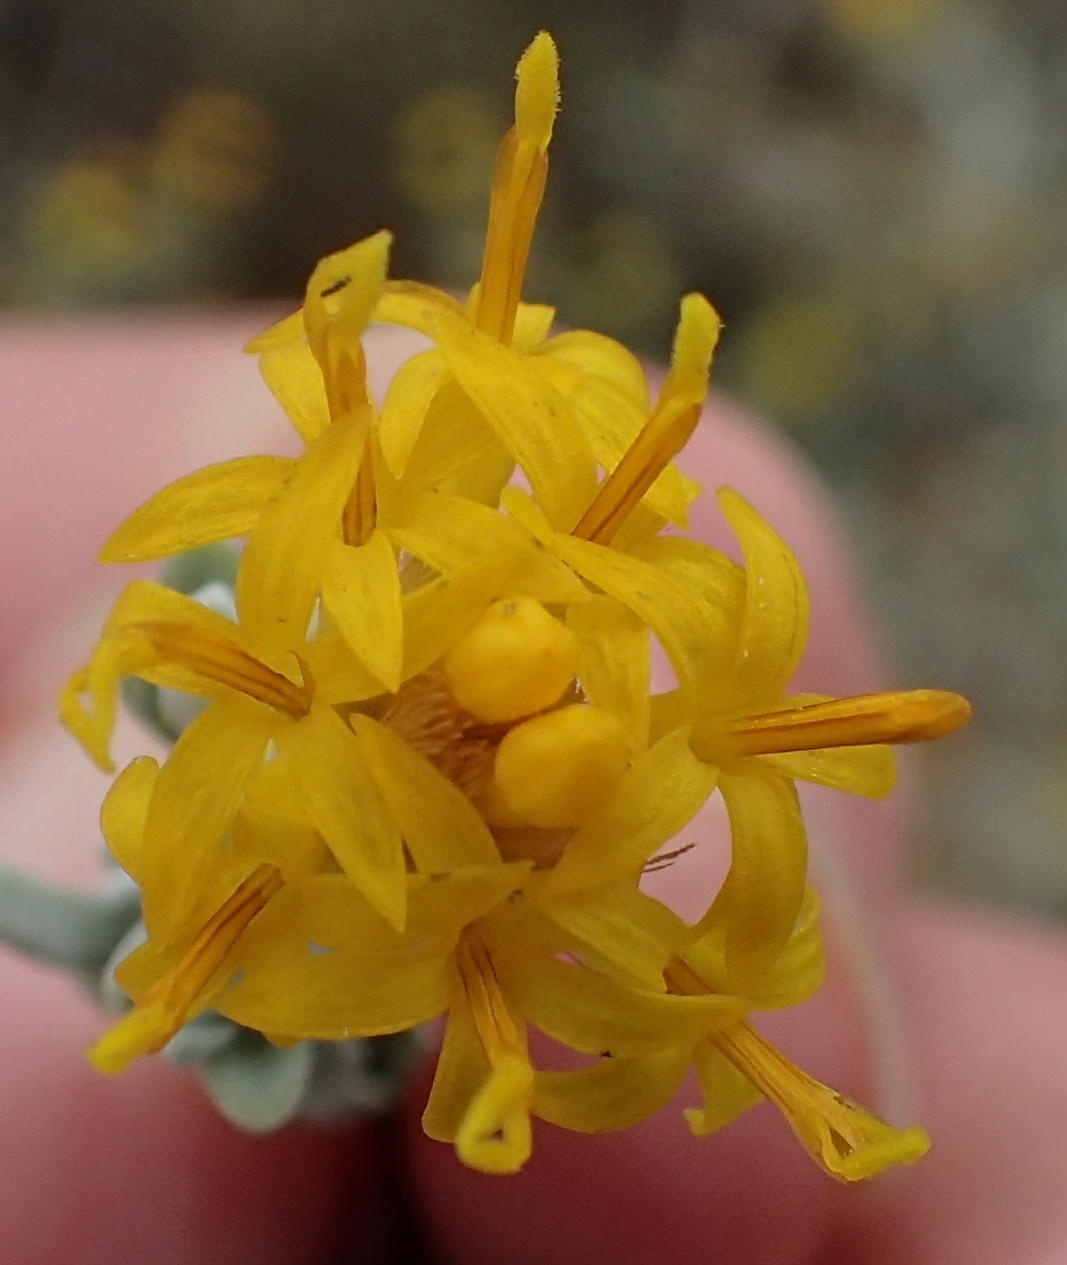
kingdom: Plantae
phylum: Tracheophyta
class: Magnoliopsida
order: Asterales
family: Asteraceae
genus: Pteronia
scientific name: Pteronia incana
